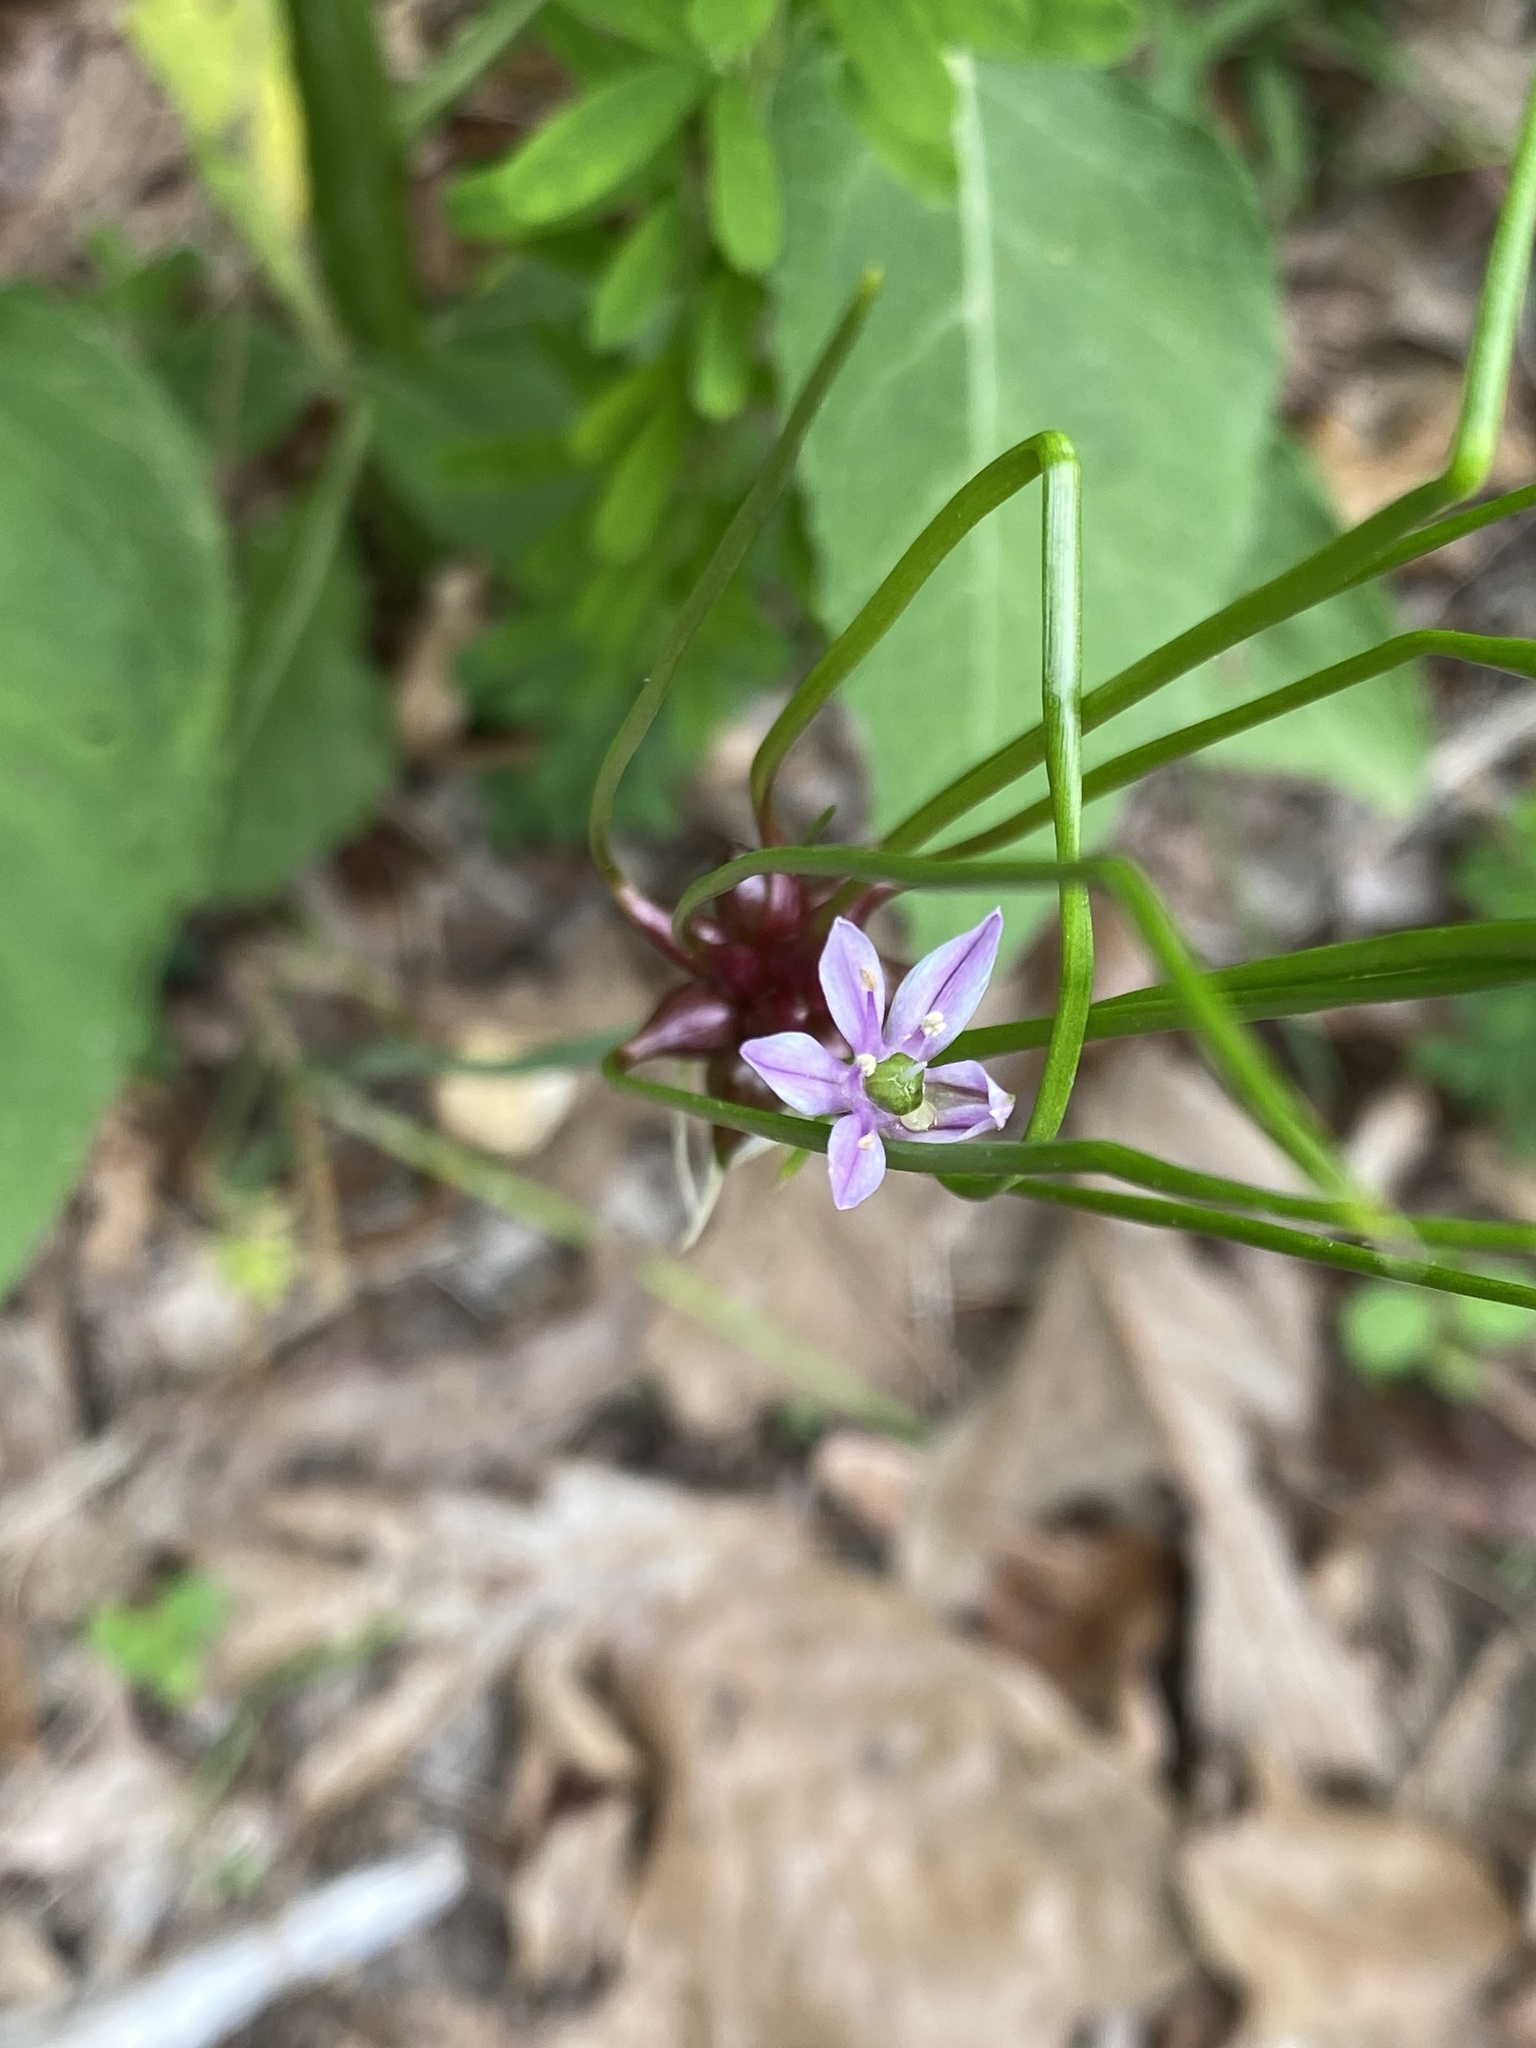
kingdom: Plantae
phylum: Tracheophyta
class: Liliopsida
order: Asparagales
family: Amaryllidaceae
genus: Allium
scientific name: Allium canadense
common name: Meadow garlic
